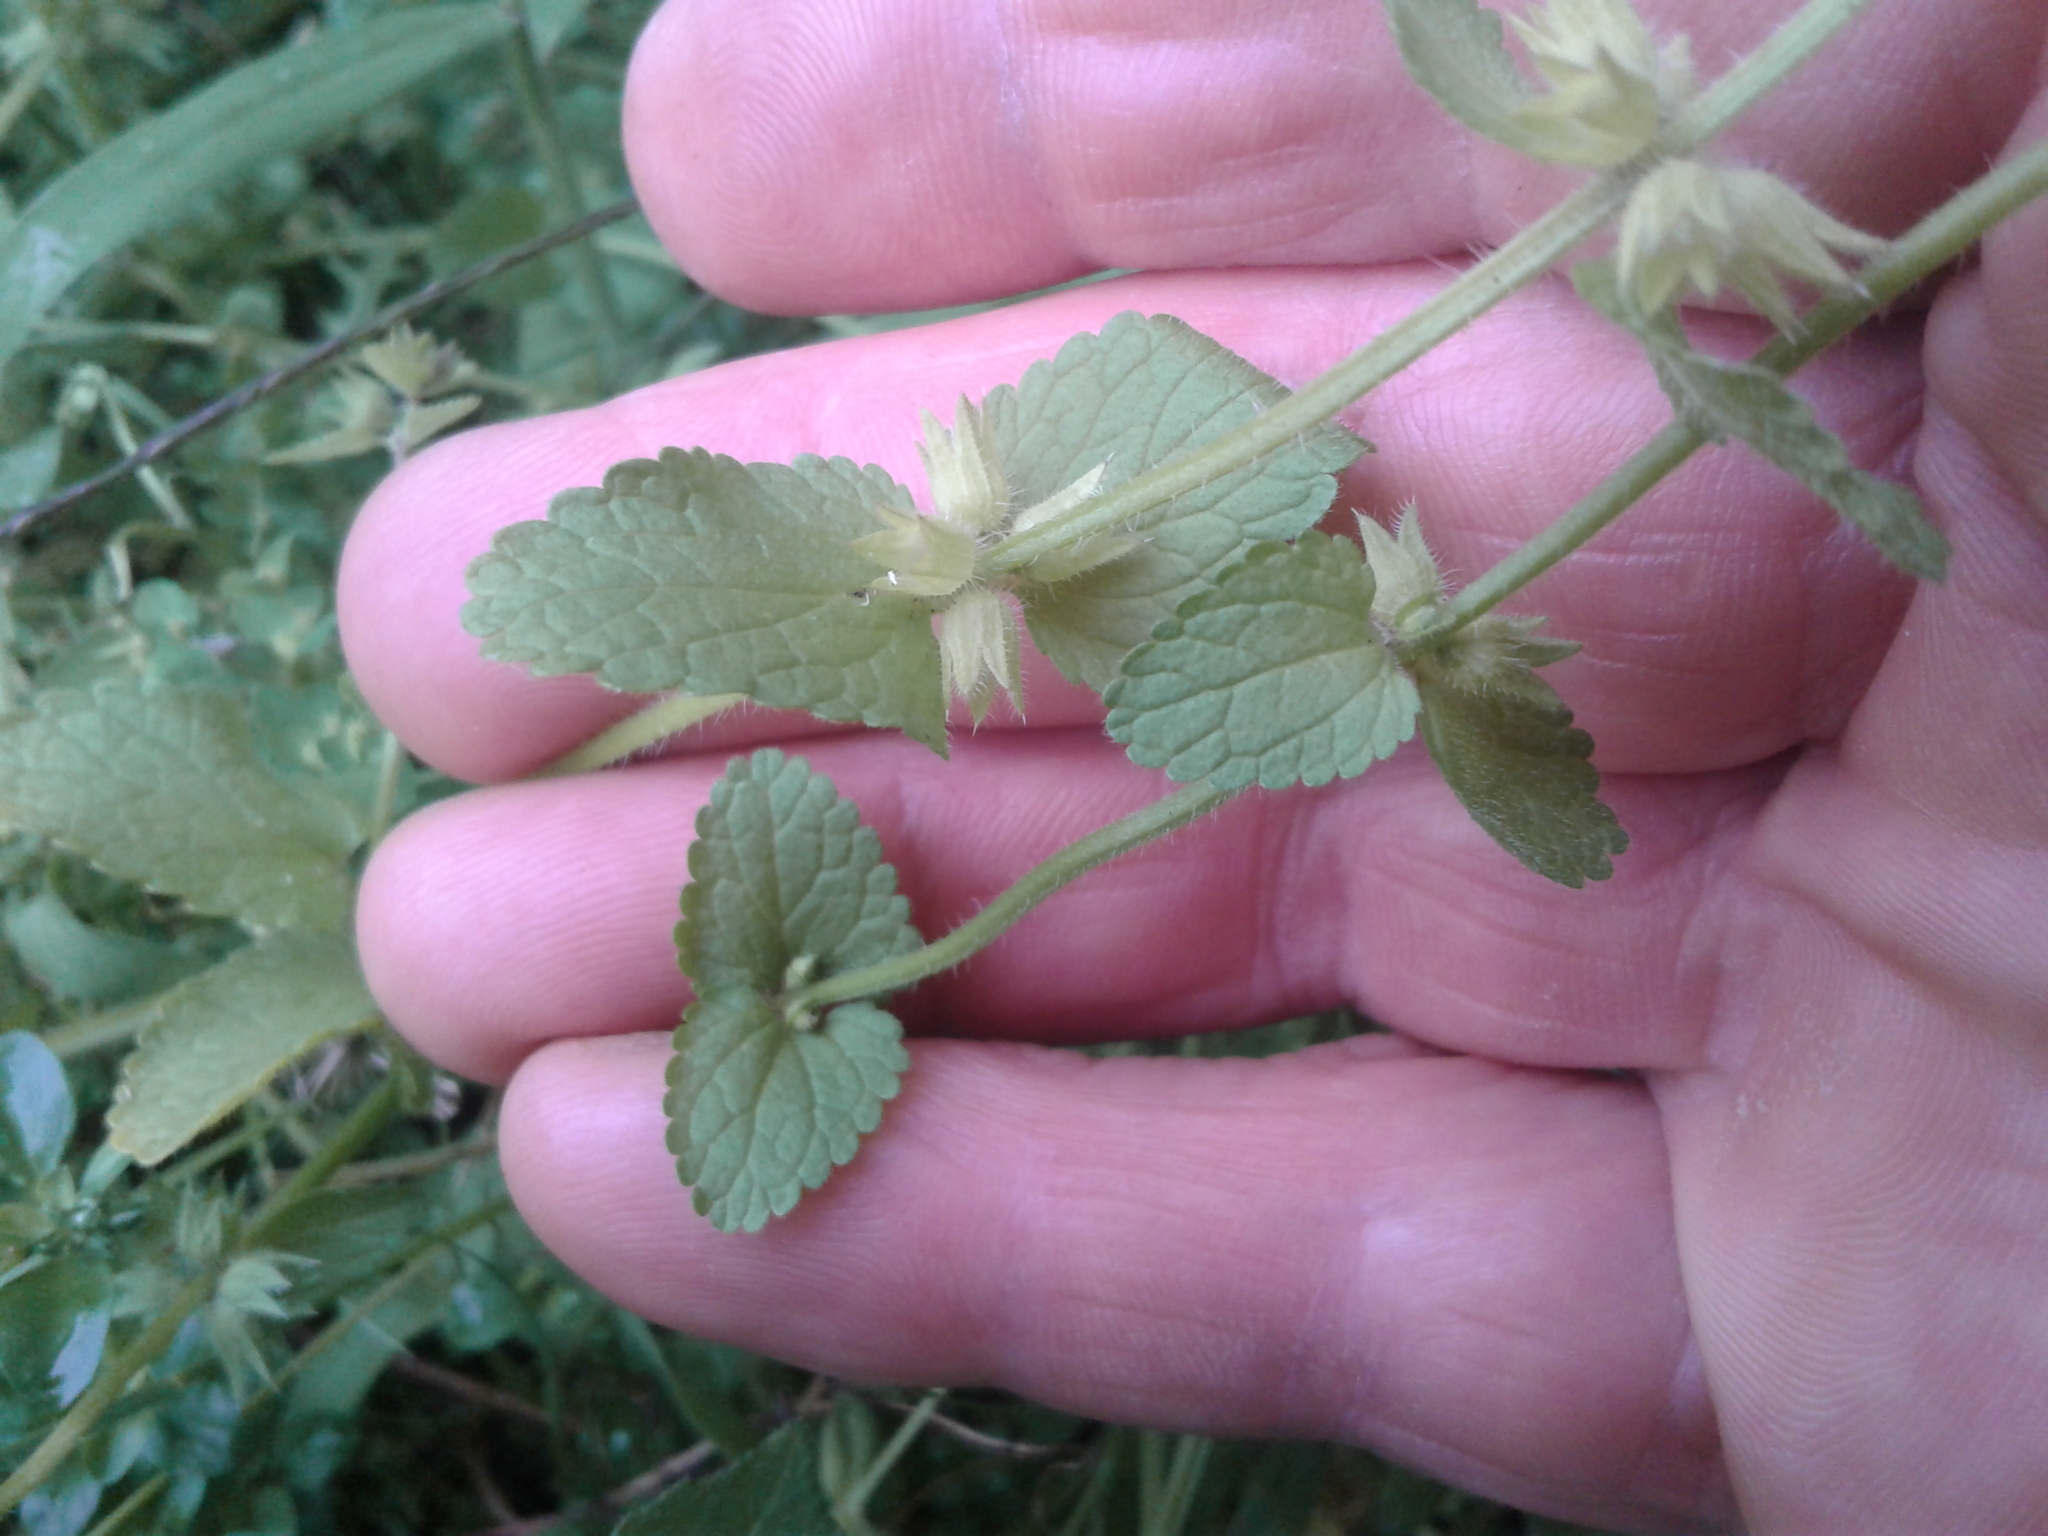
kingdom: Plantae
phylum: Tracheophyta
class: Magnoliopsida
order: Lamiales
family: Lamiaceae
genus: Stachys
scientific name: Stachys arvensis
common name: Field woundwort
